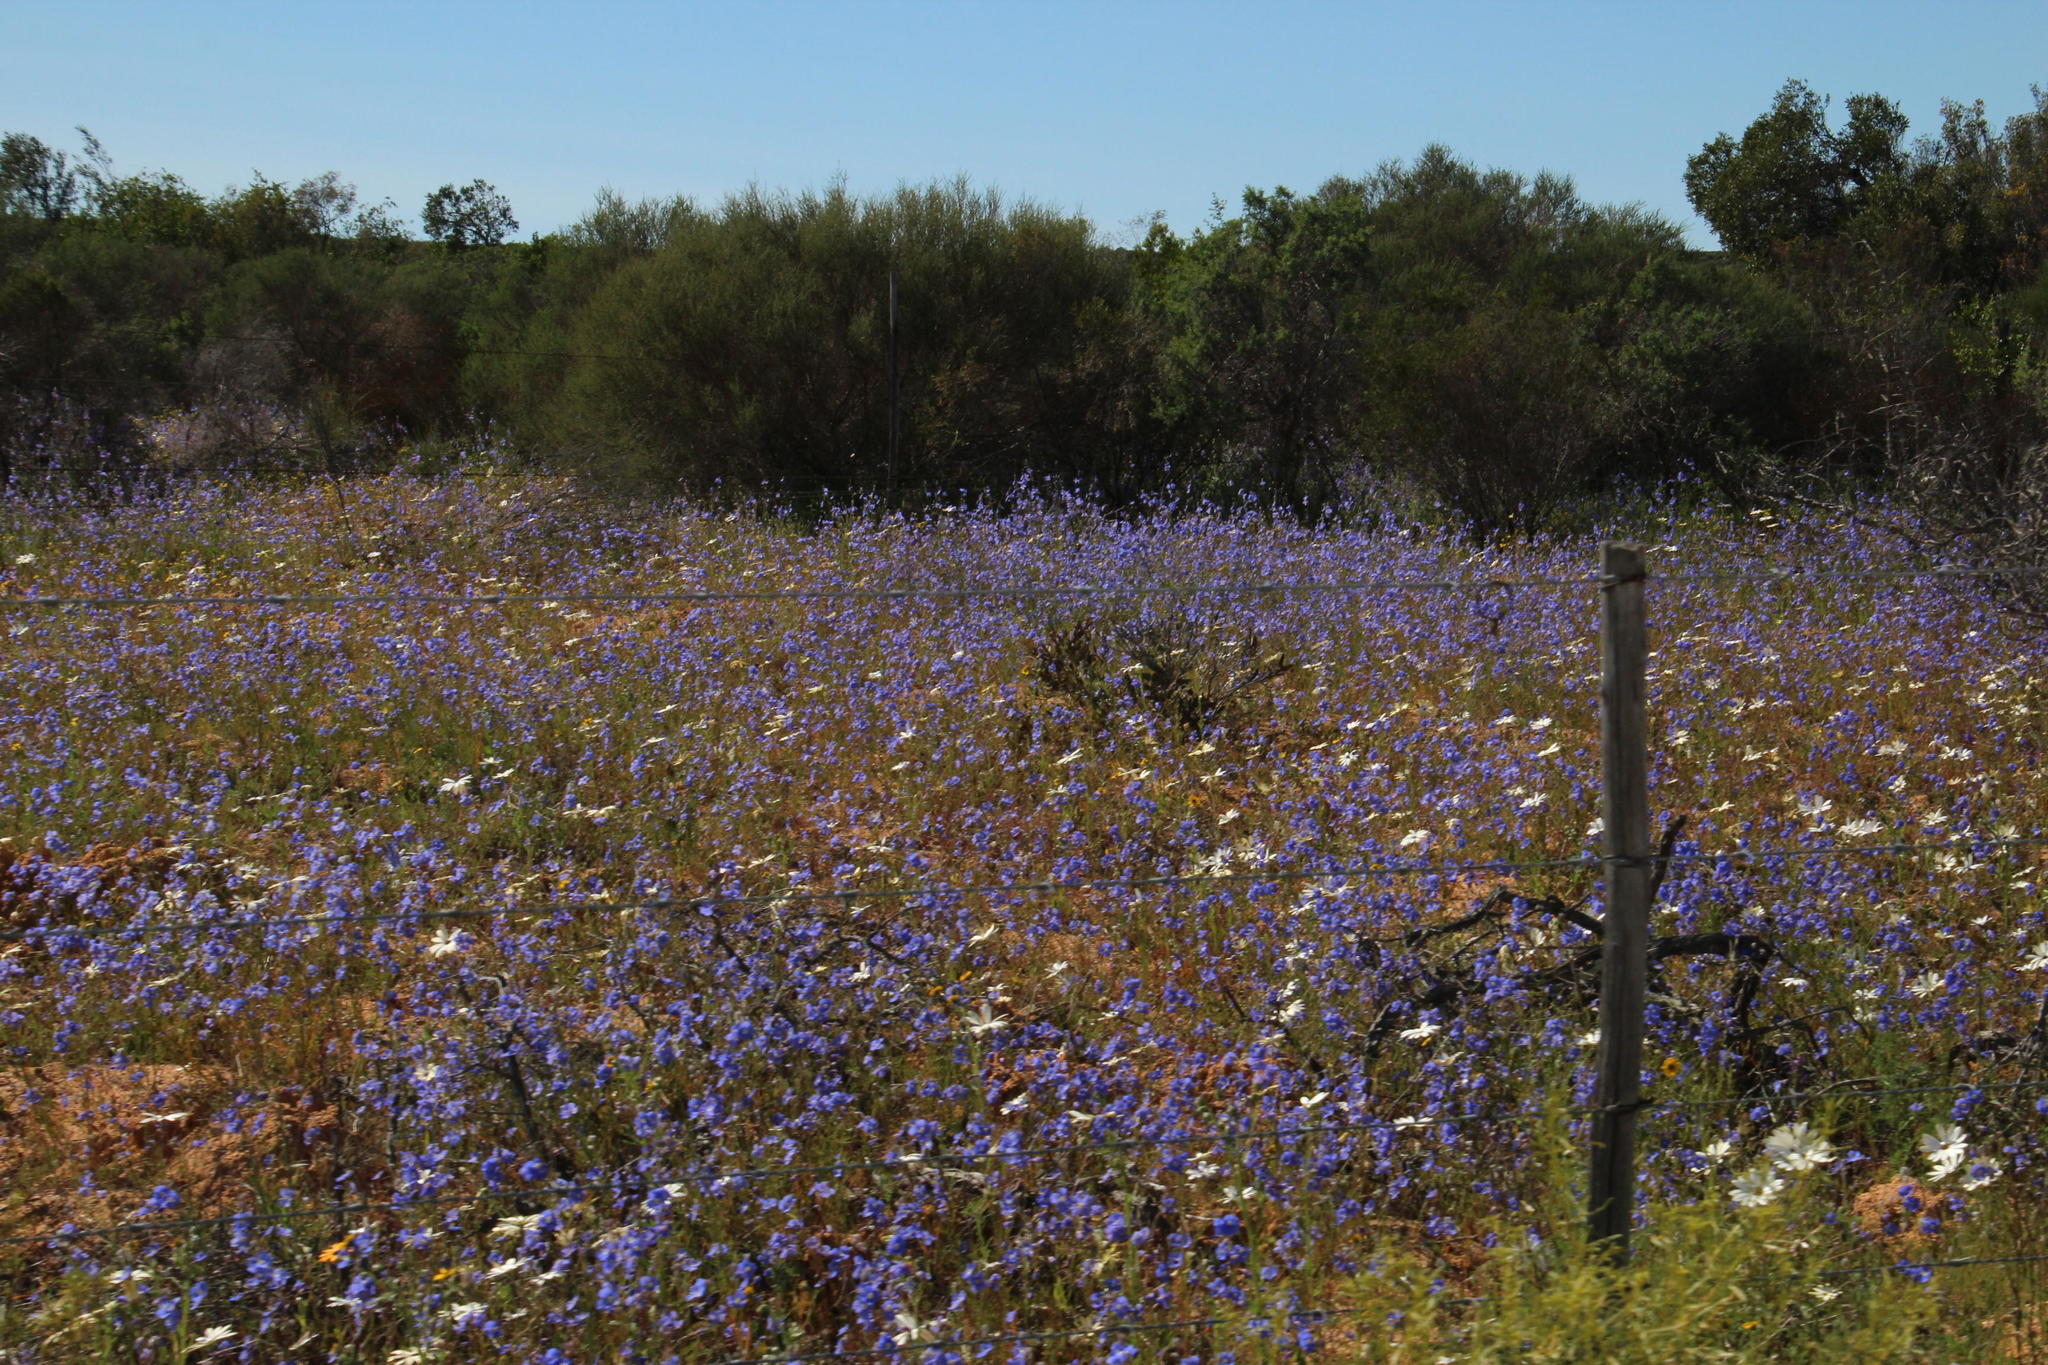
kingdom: Plantae
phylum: Tracheophyta
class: Magnoliopsida
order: Brassicales
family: Brassicaceae
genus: Heliophila
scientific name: Heliophila africana
